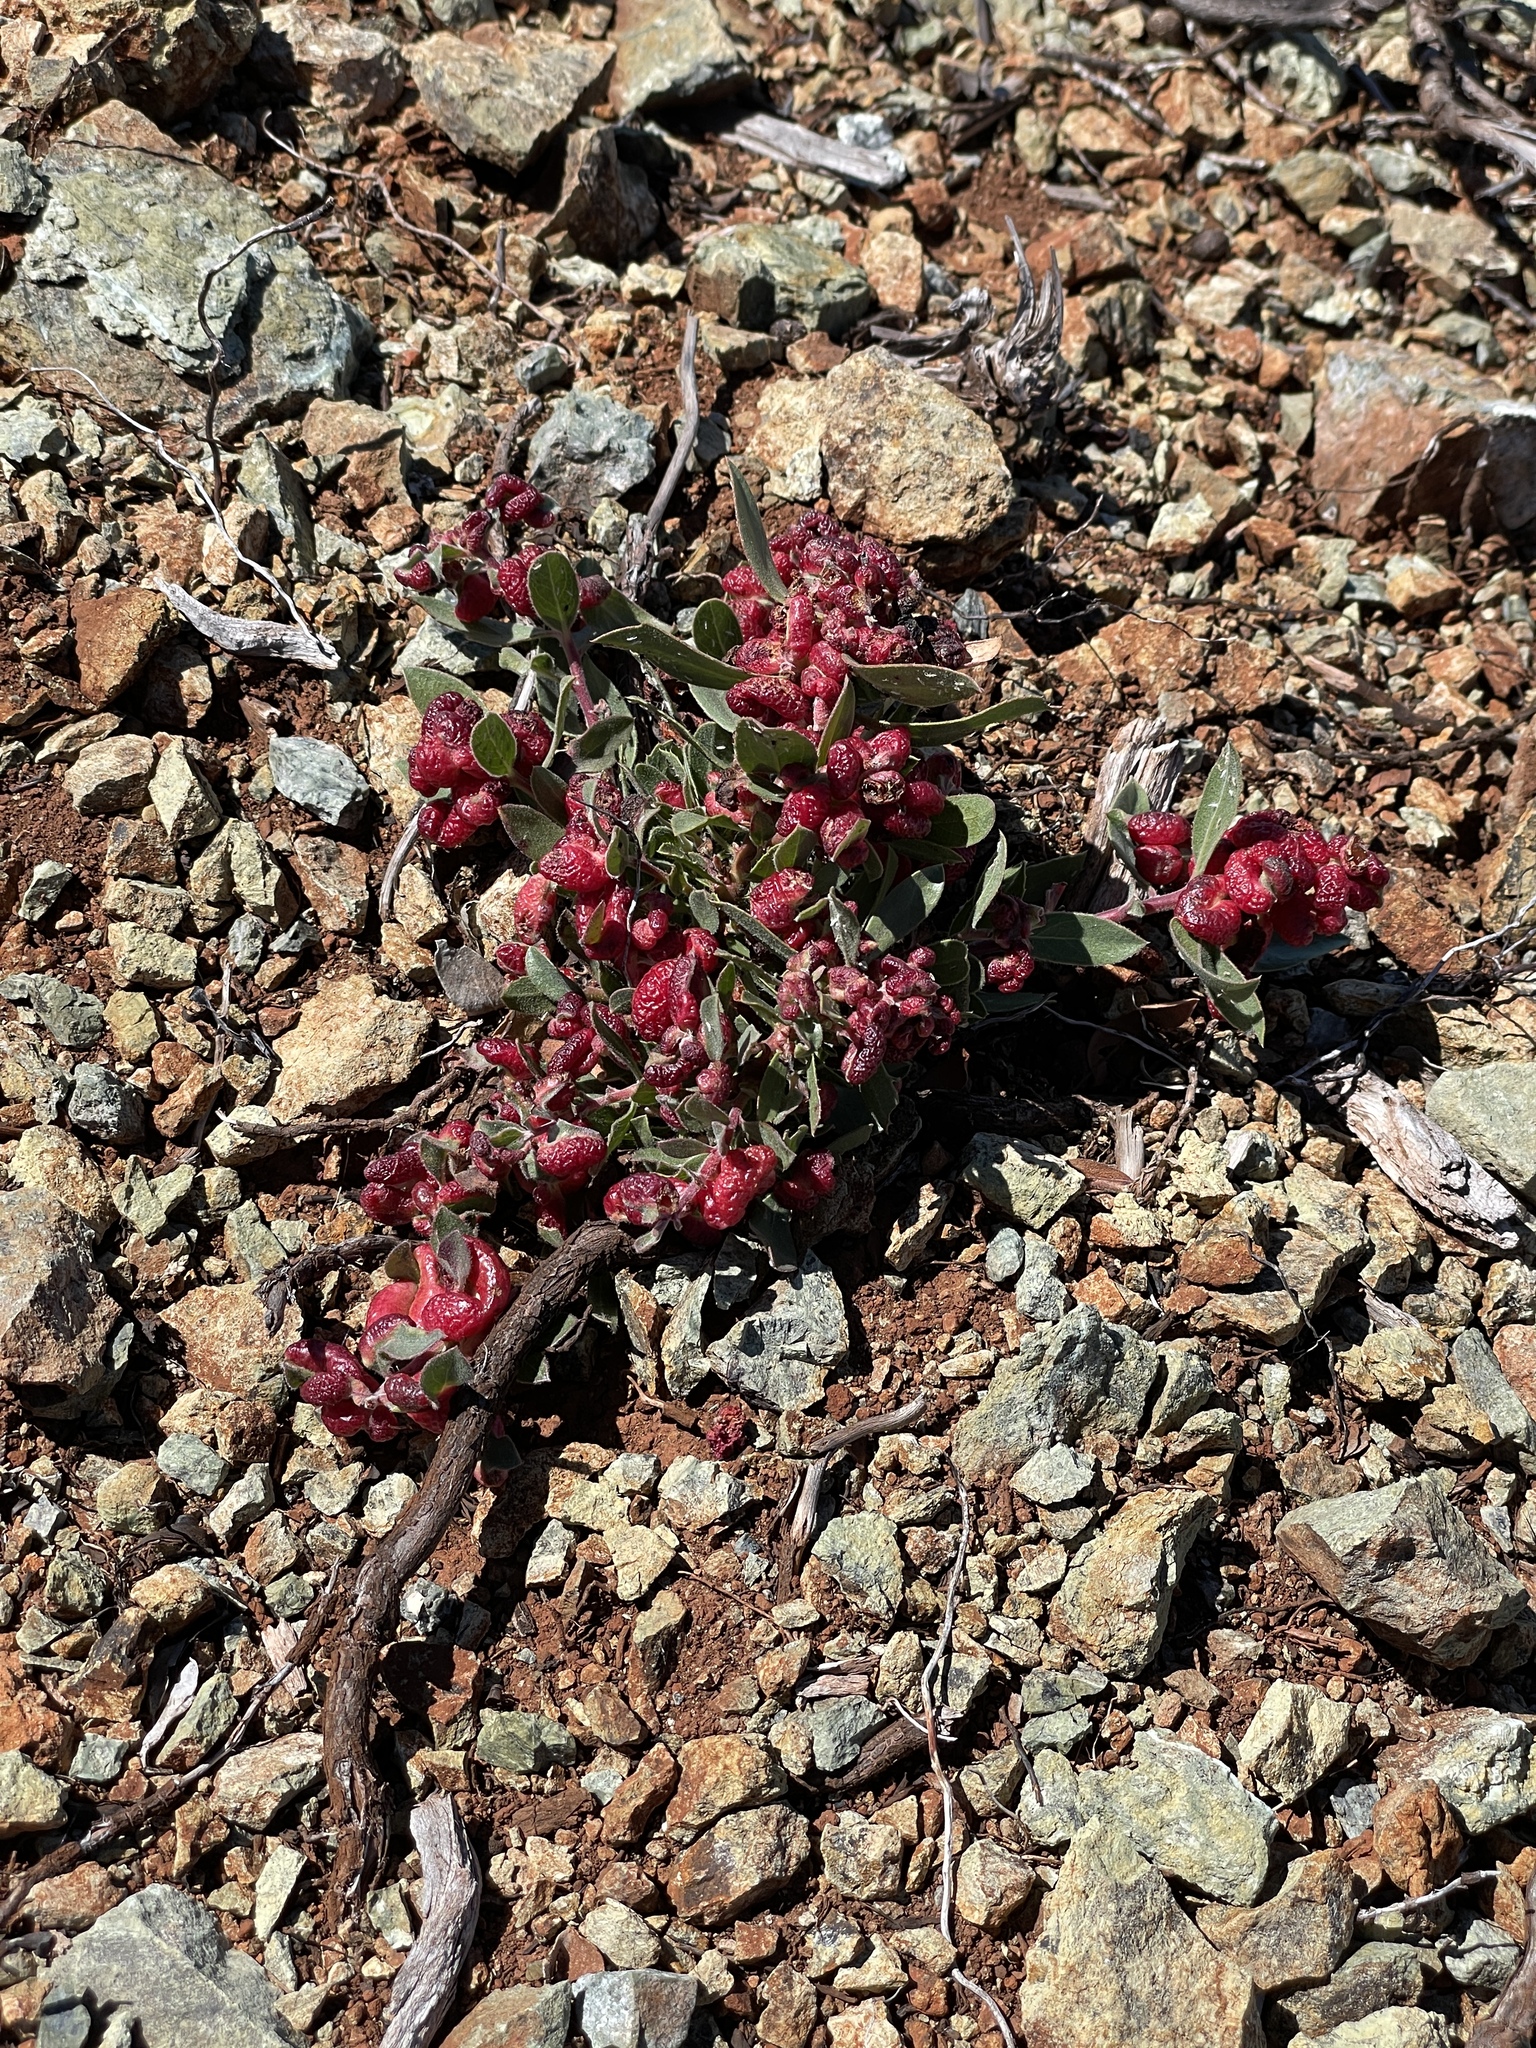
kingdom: Animalia
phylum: Arthropoda
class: Insecta
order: Hemiptera
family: Aphididae
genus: Tamalia
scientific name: Tamalia coweni
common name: Manzanita leafgall aphid
